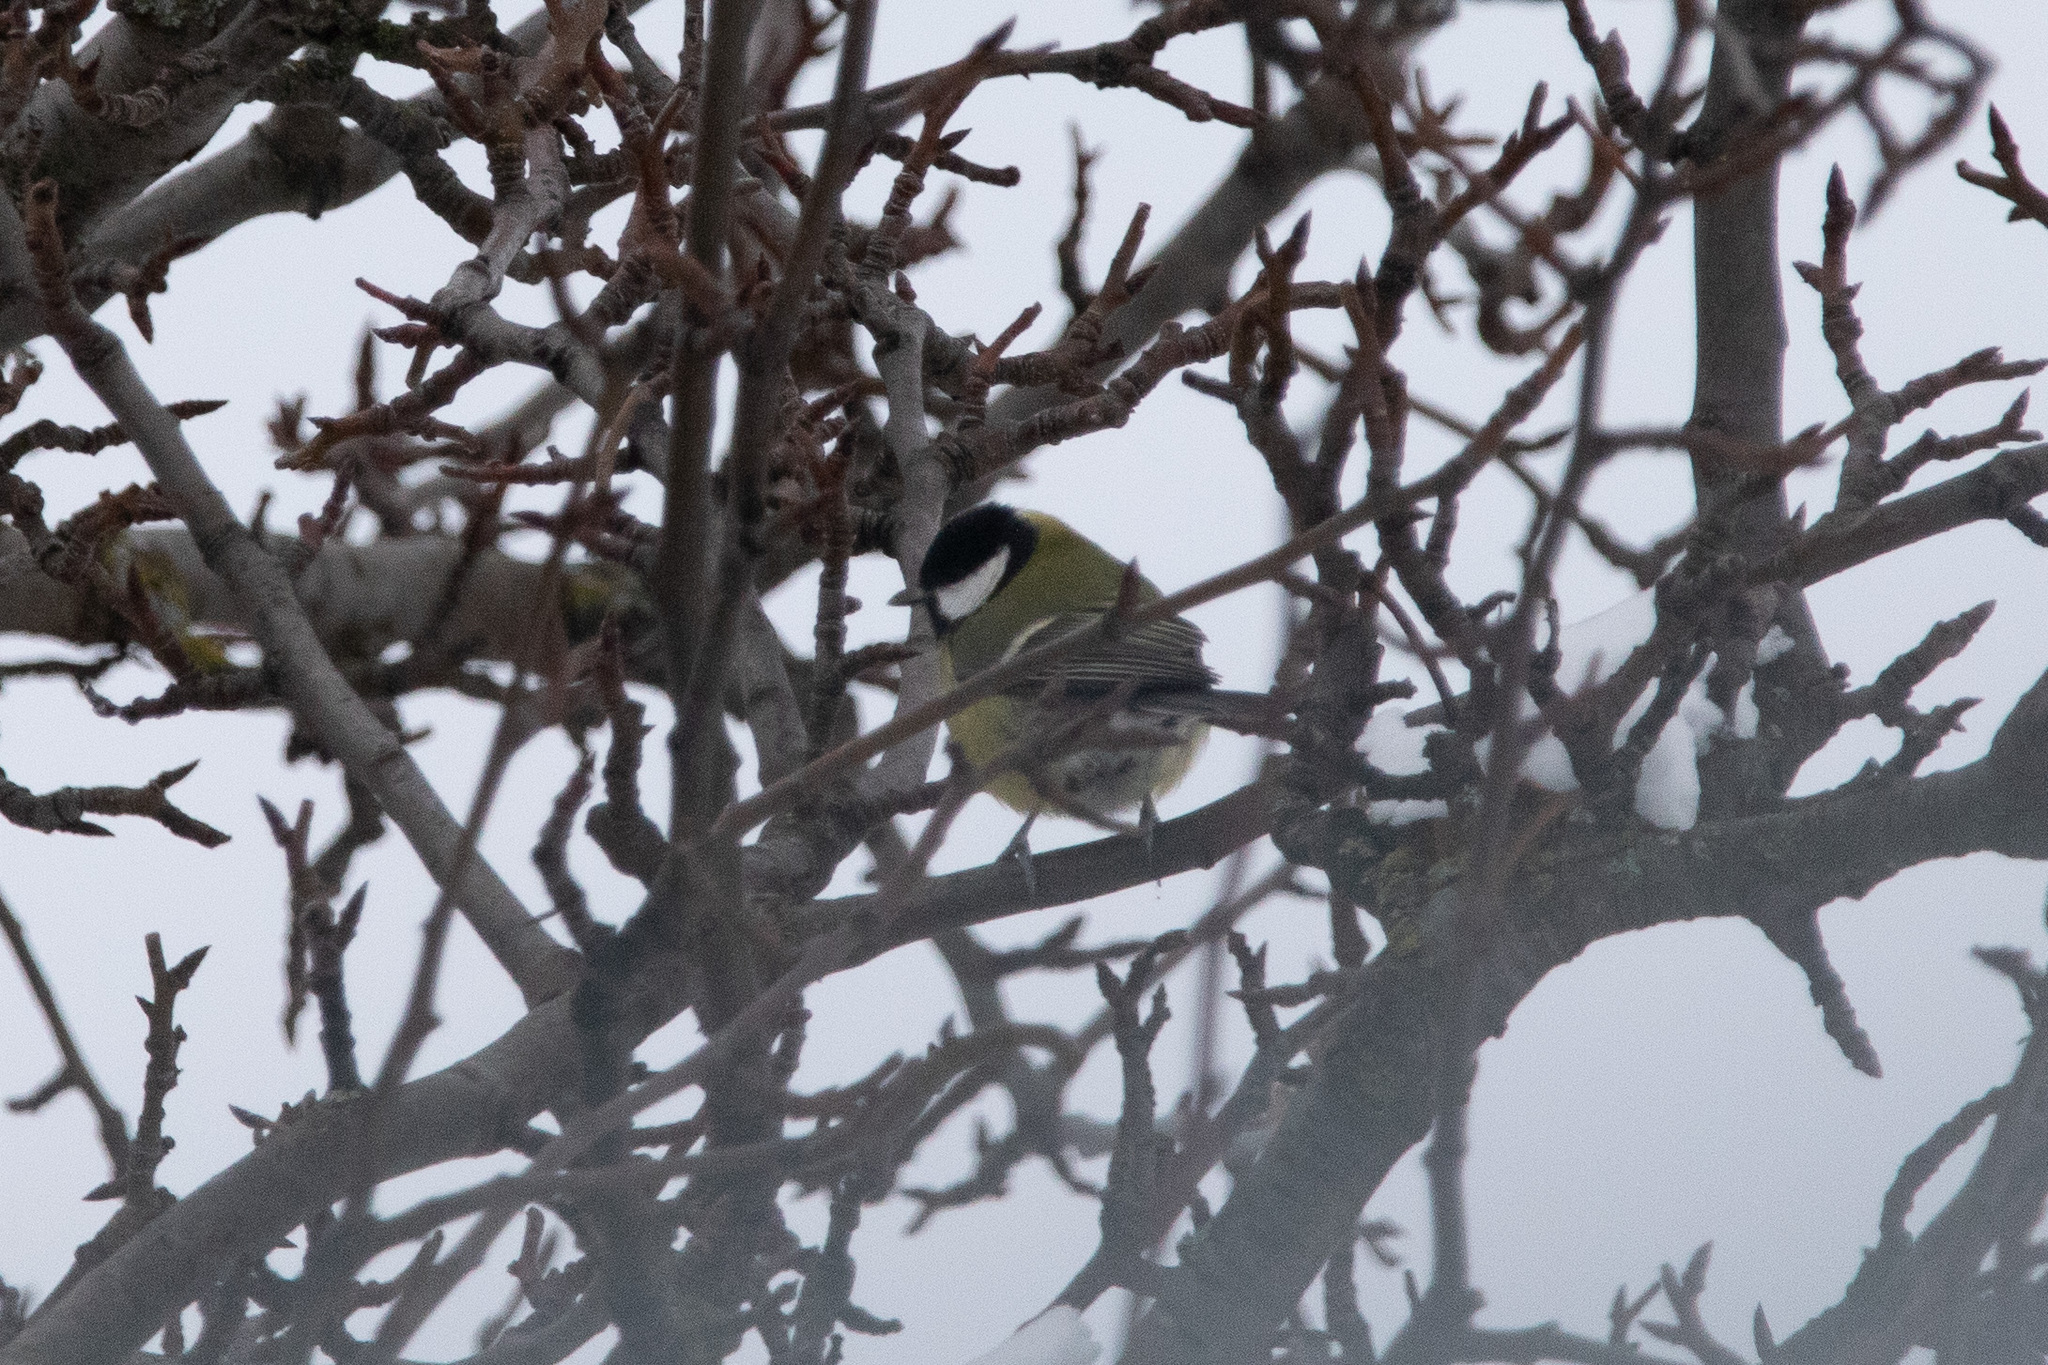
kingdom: Animalia
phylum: Chordata
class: Aves
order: Passeriformes
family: Paridae
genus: Parus
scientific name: Parus major
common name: Great tit
